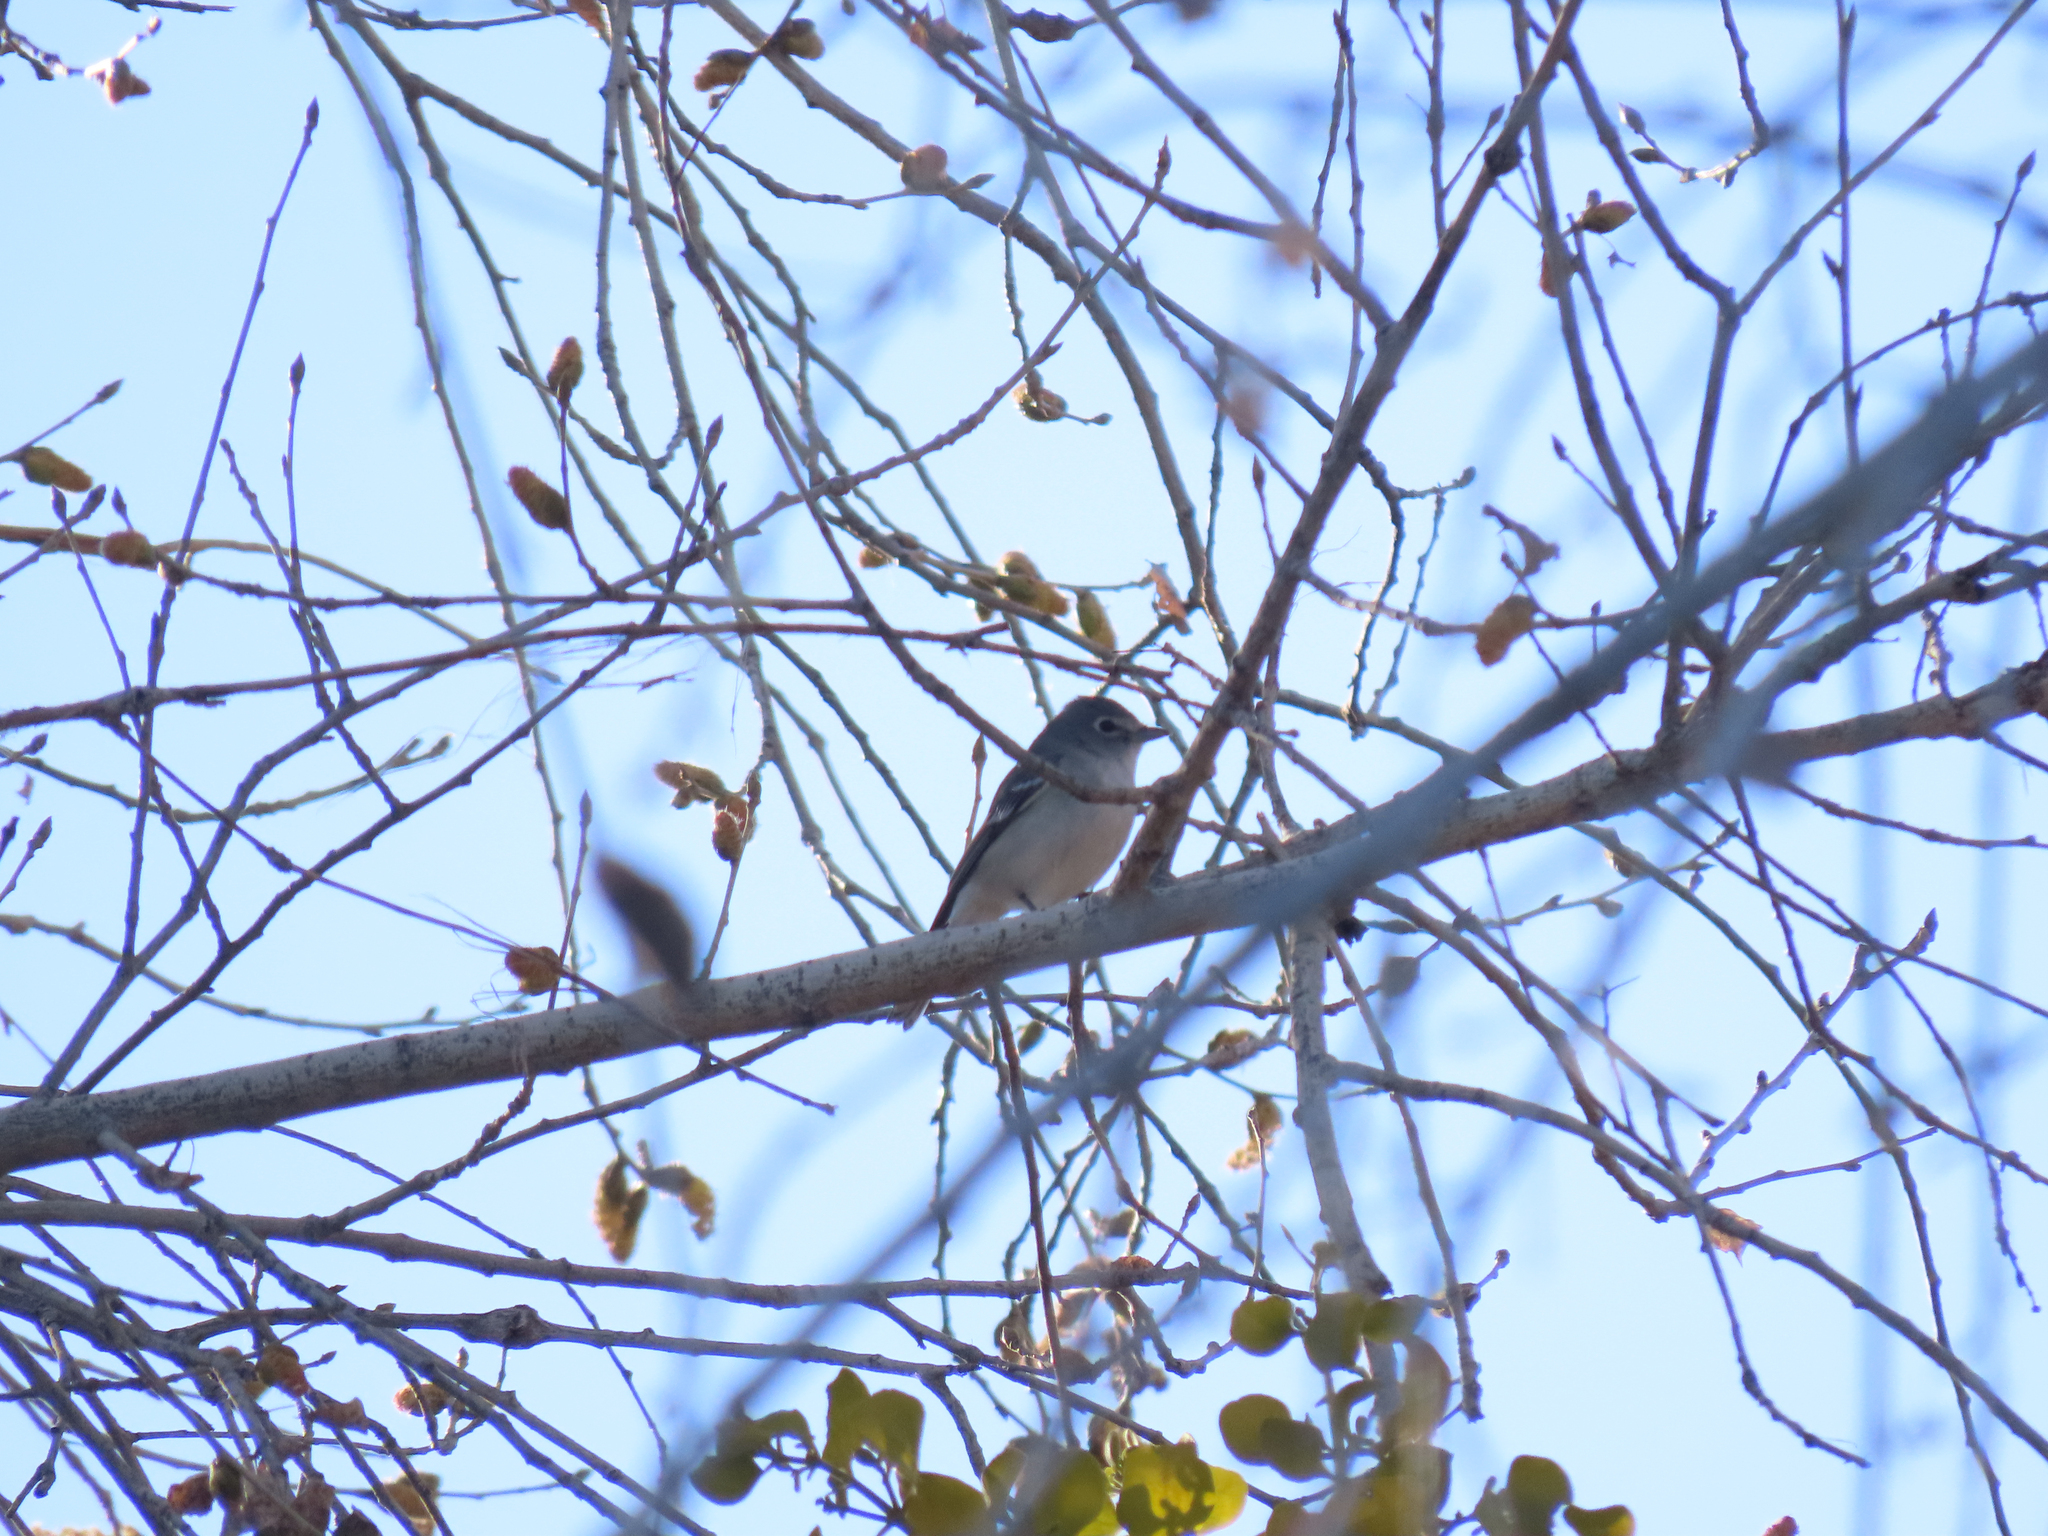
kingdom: Animalia
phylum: Chordata
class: Aves
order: Passeriformes
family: Vireonidae
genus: Vireo
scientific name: Vireo plumbeus
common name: Plumbeous vireo
